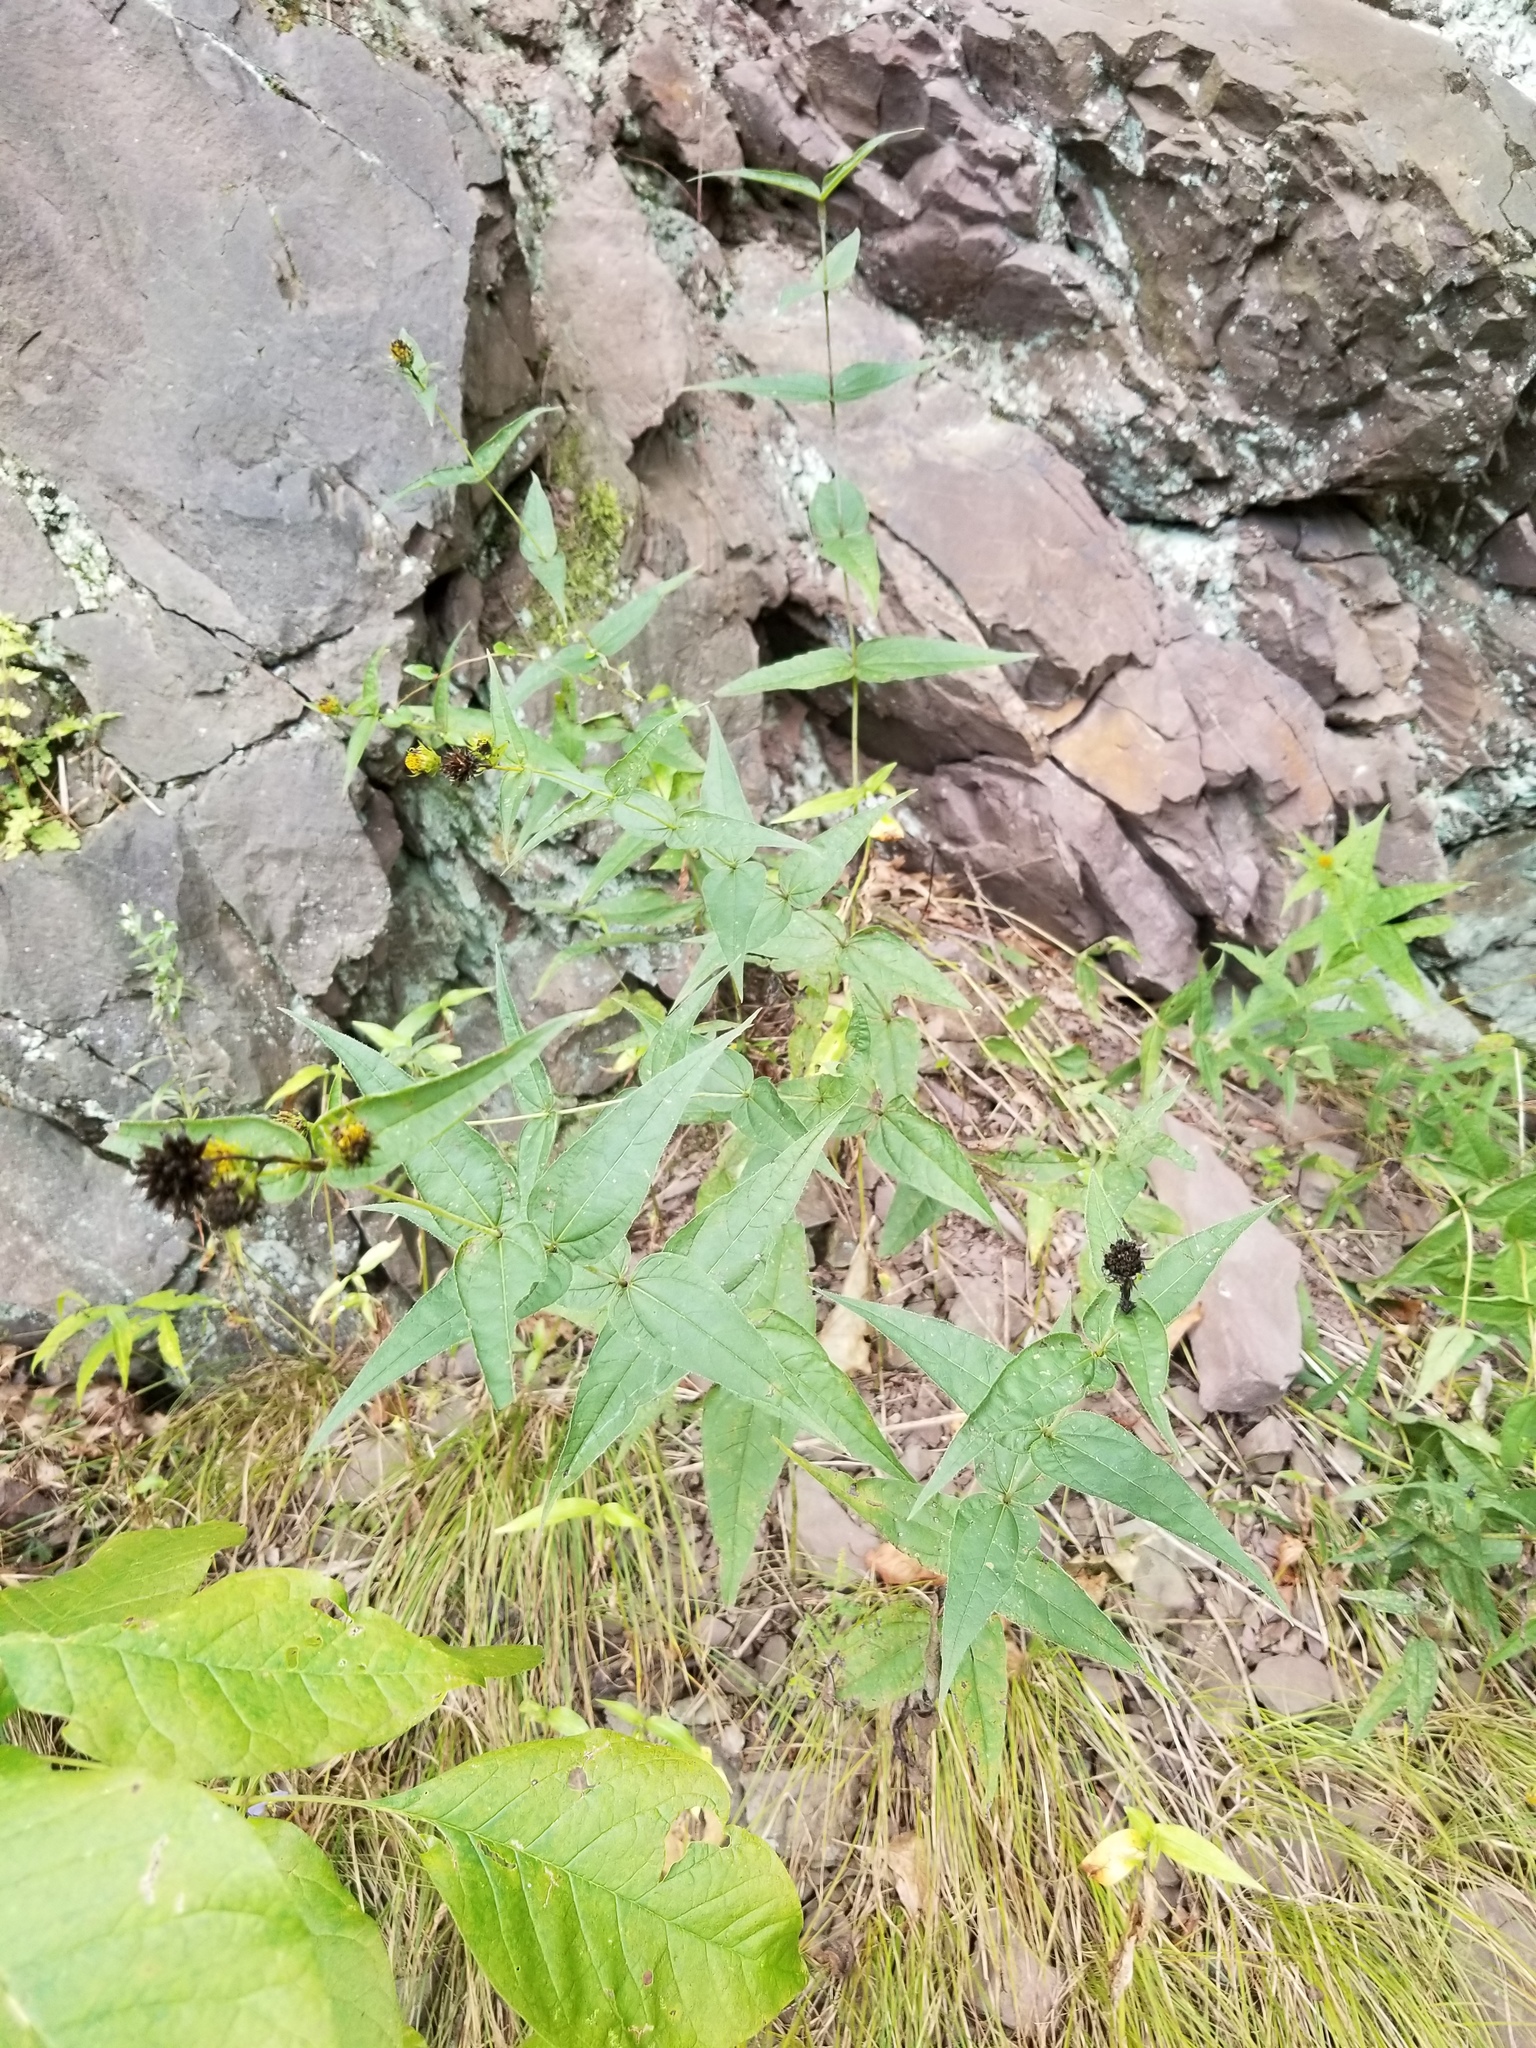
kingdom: Plantae
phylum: Tracheophyta
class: Magnoliopsida
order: Asterales
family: Asteraceae
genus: Helianthus
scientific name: Helianthus divaricatus
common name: Divergent sunflower
